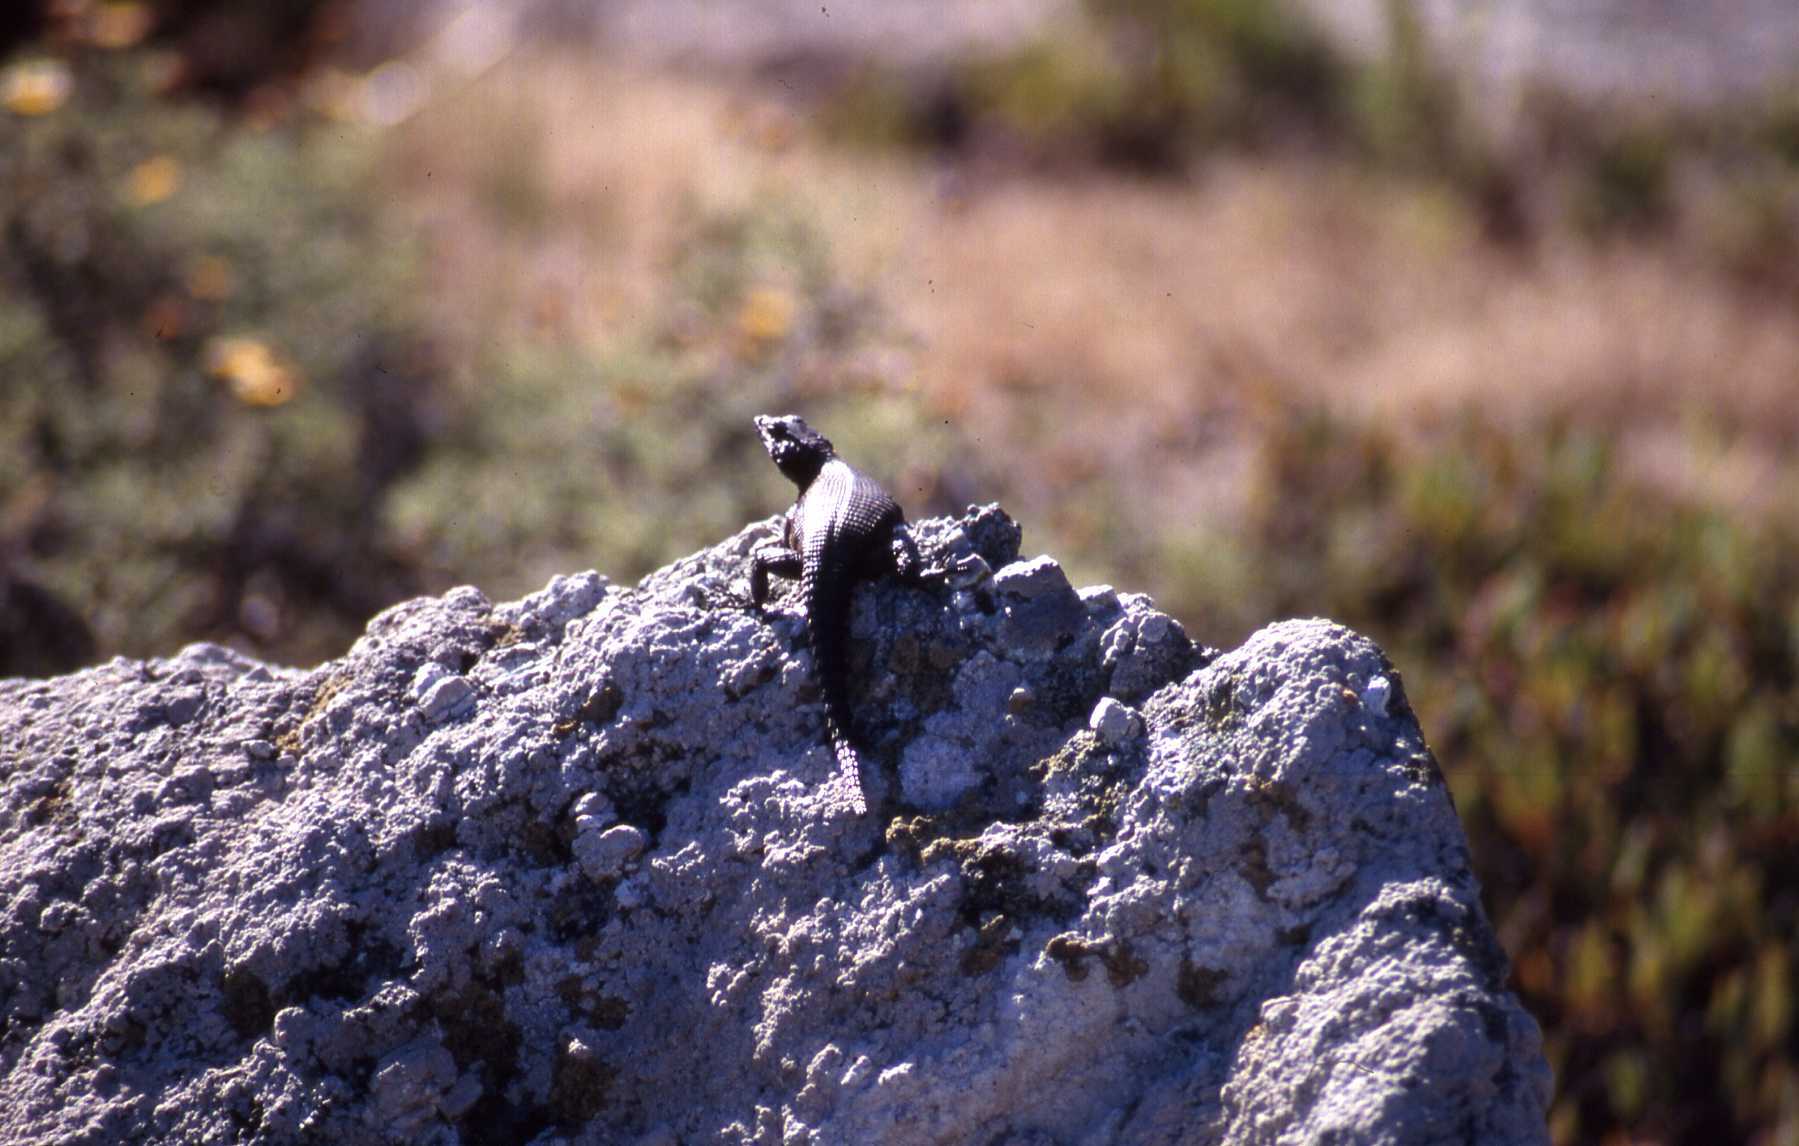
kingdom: Animalia
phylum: Chordata
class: Squamata
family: Cordylidae
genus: Karusasaurus
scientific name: Karusasaurus polyzonus
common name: Karoo girdled lizard
